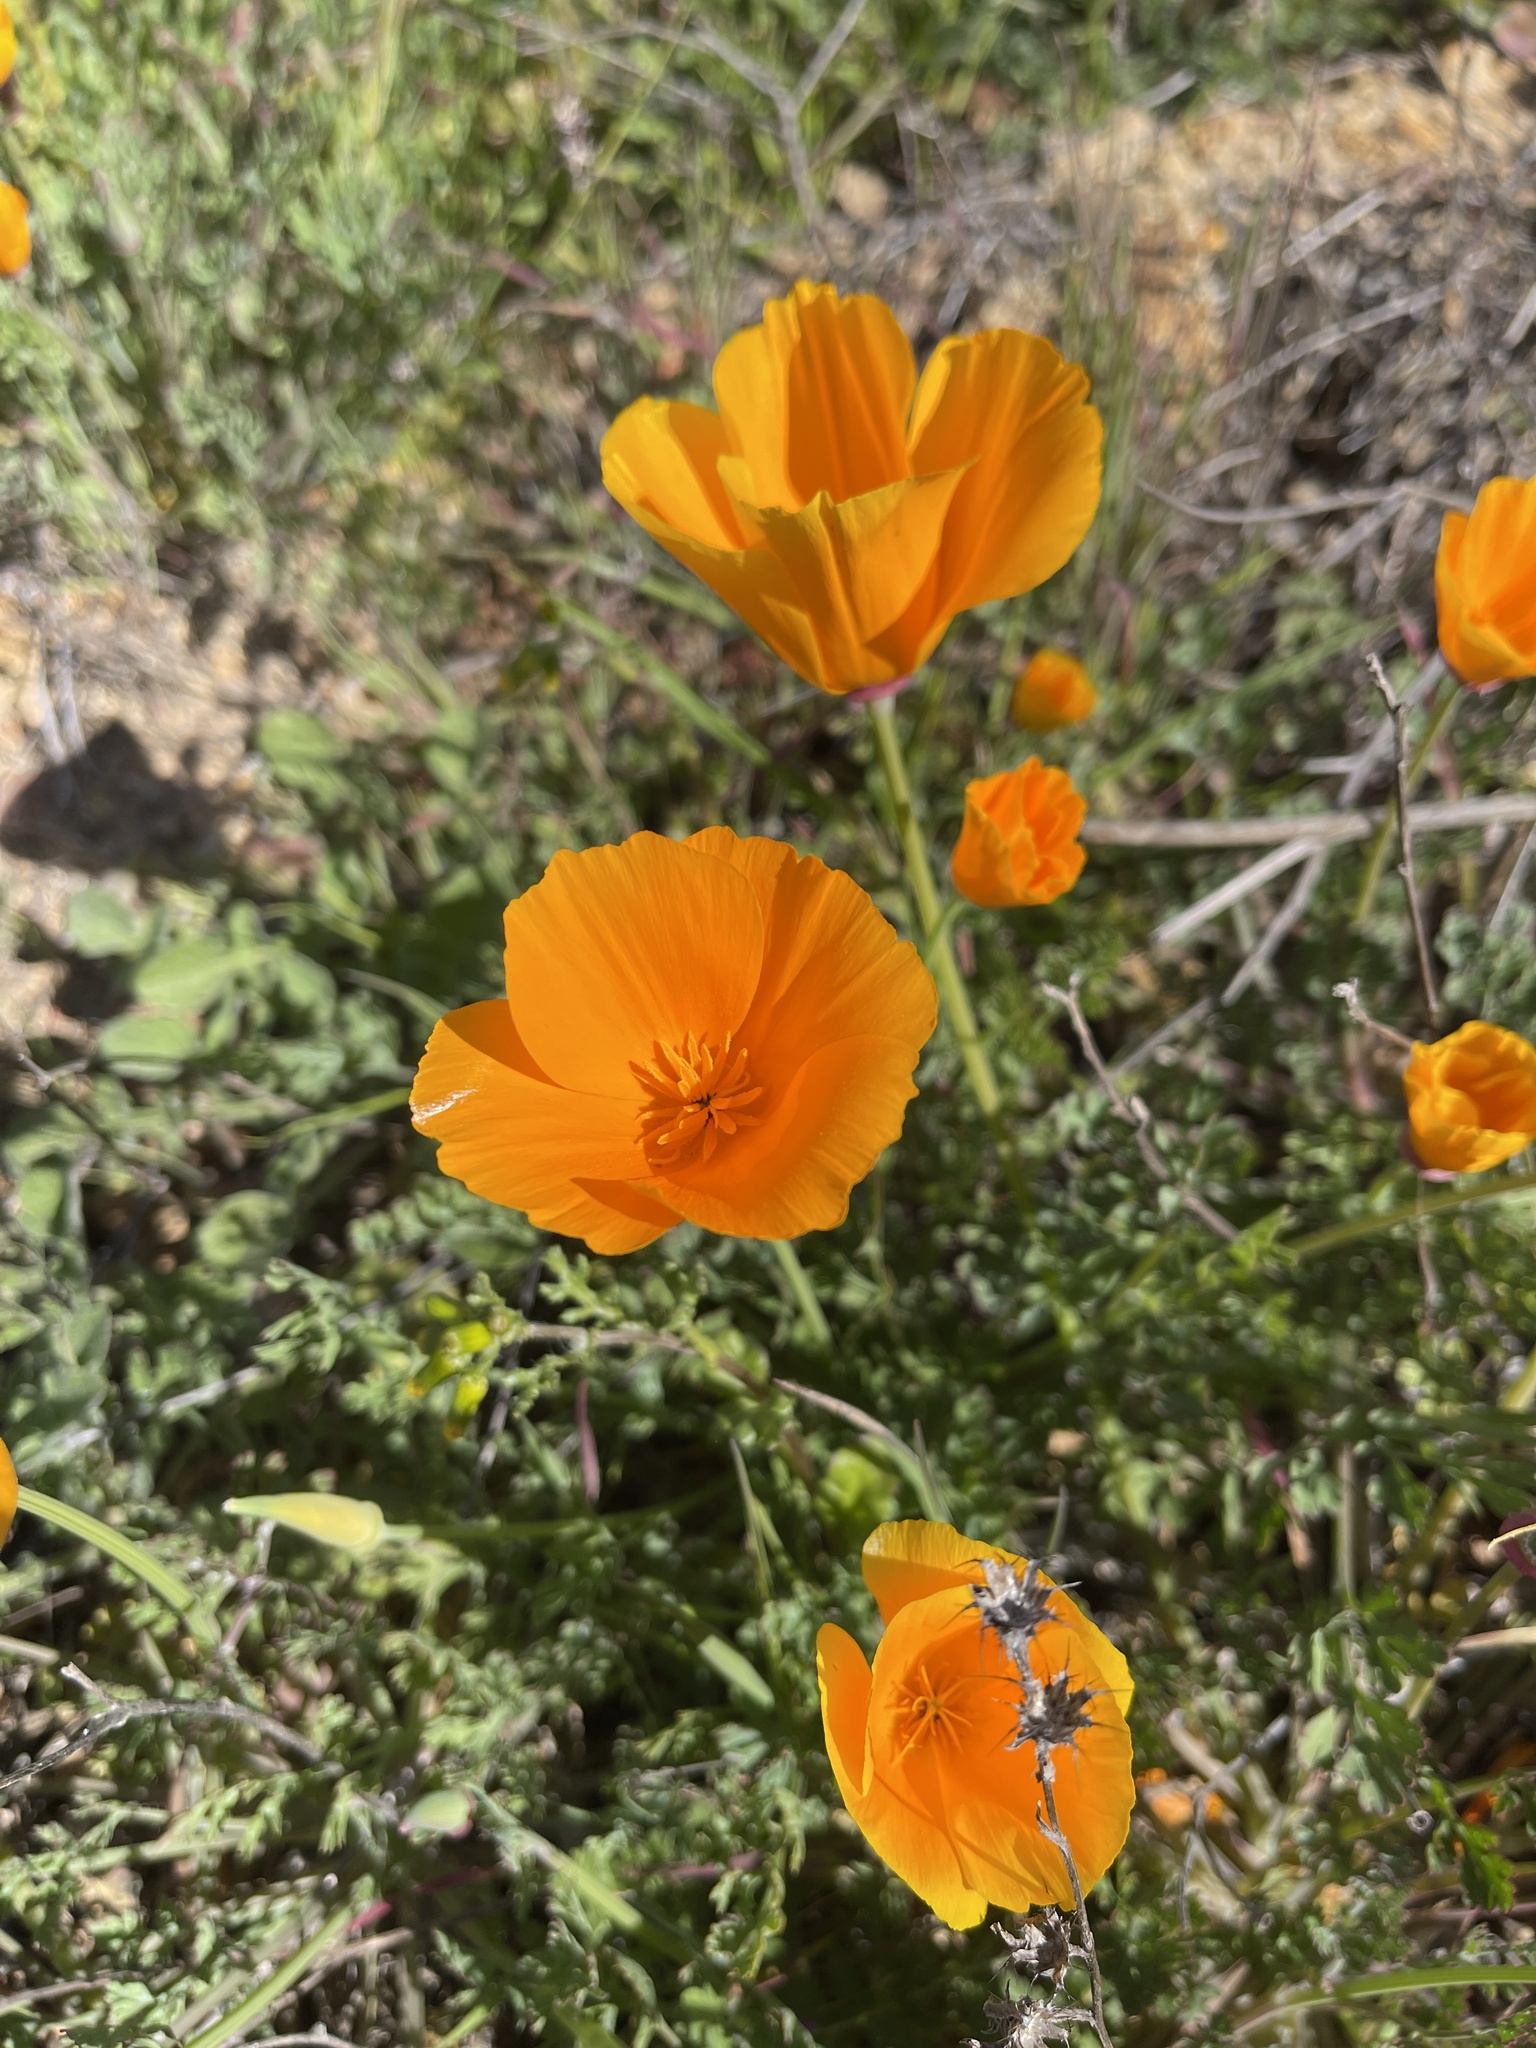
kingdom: Plantae
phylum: Tracheophyta
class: Magnoliopsida
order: Ranunculales
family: Papaveraceae
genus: Eschscholzia
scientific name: Eschscholzia californica
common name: California poppy
